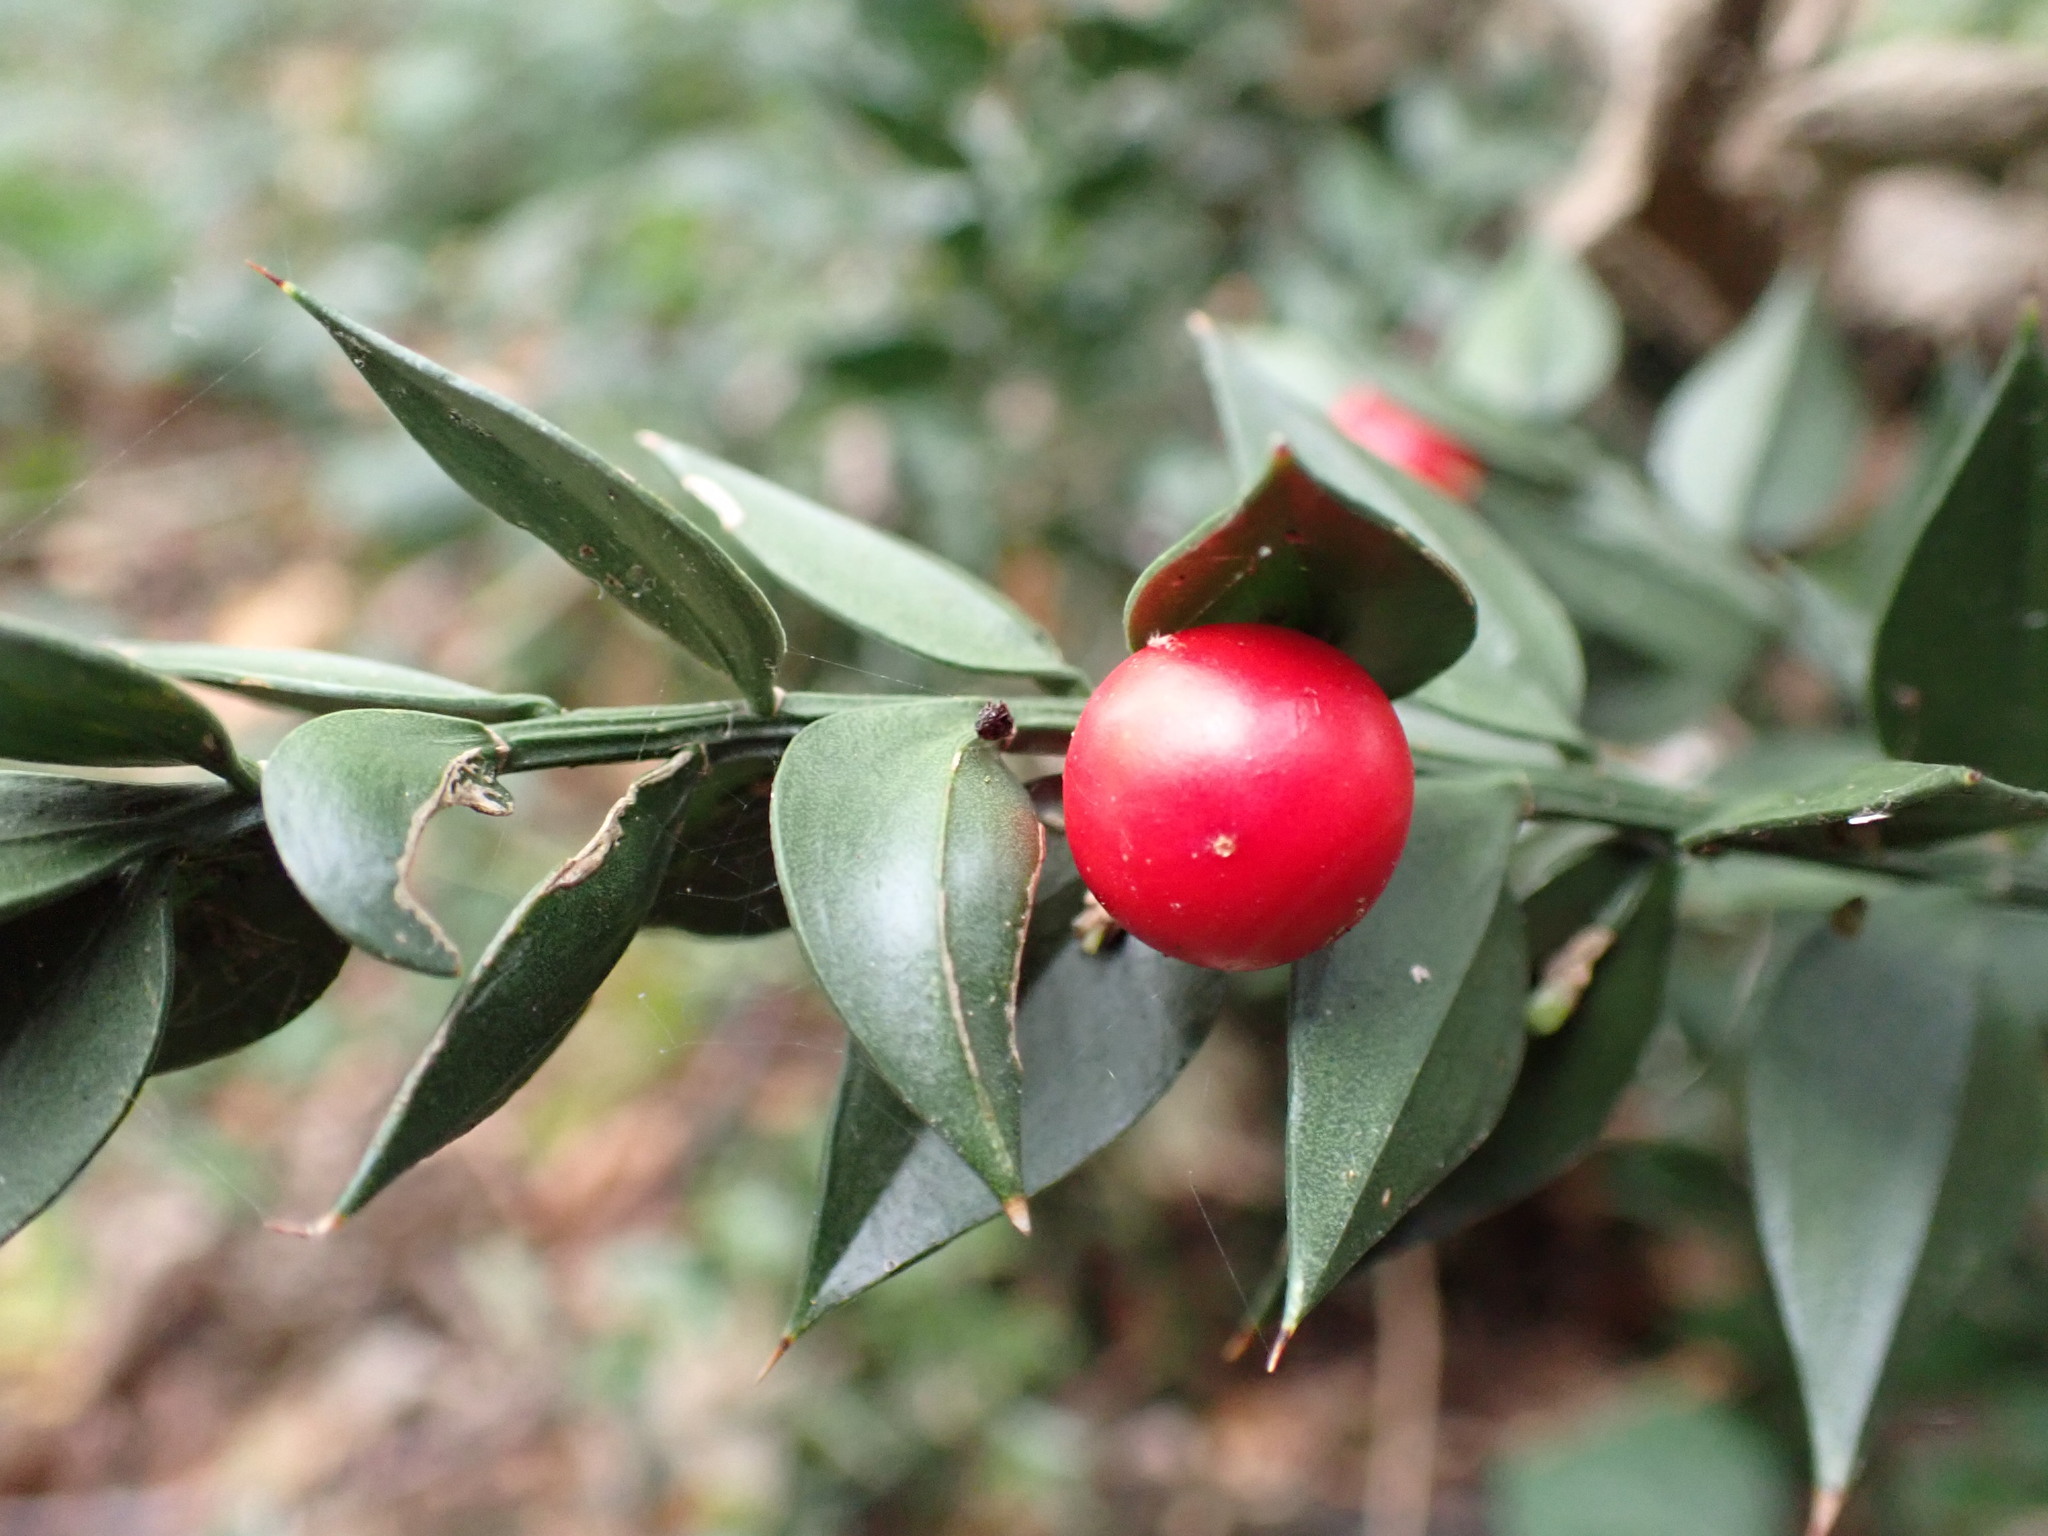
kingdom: Plantae
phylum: Tracheophyta
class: Liliopsida
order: Asparagales
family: Asparagaceae
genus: Ruscus
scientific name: Ruscus aculeatus
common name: Butcher's-broom
